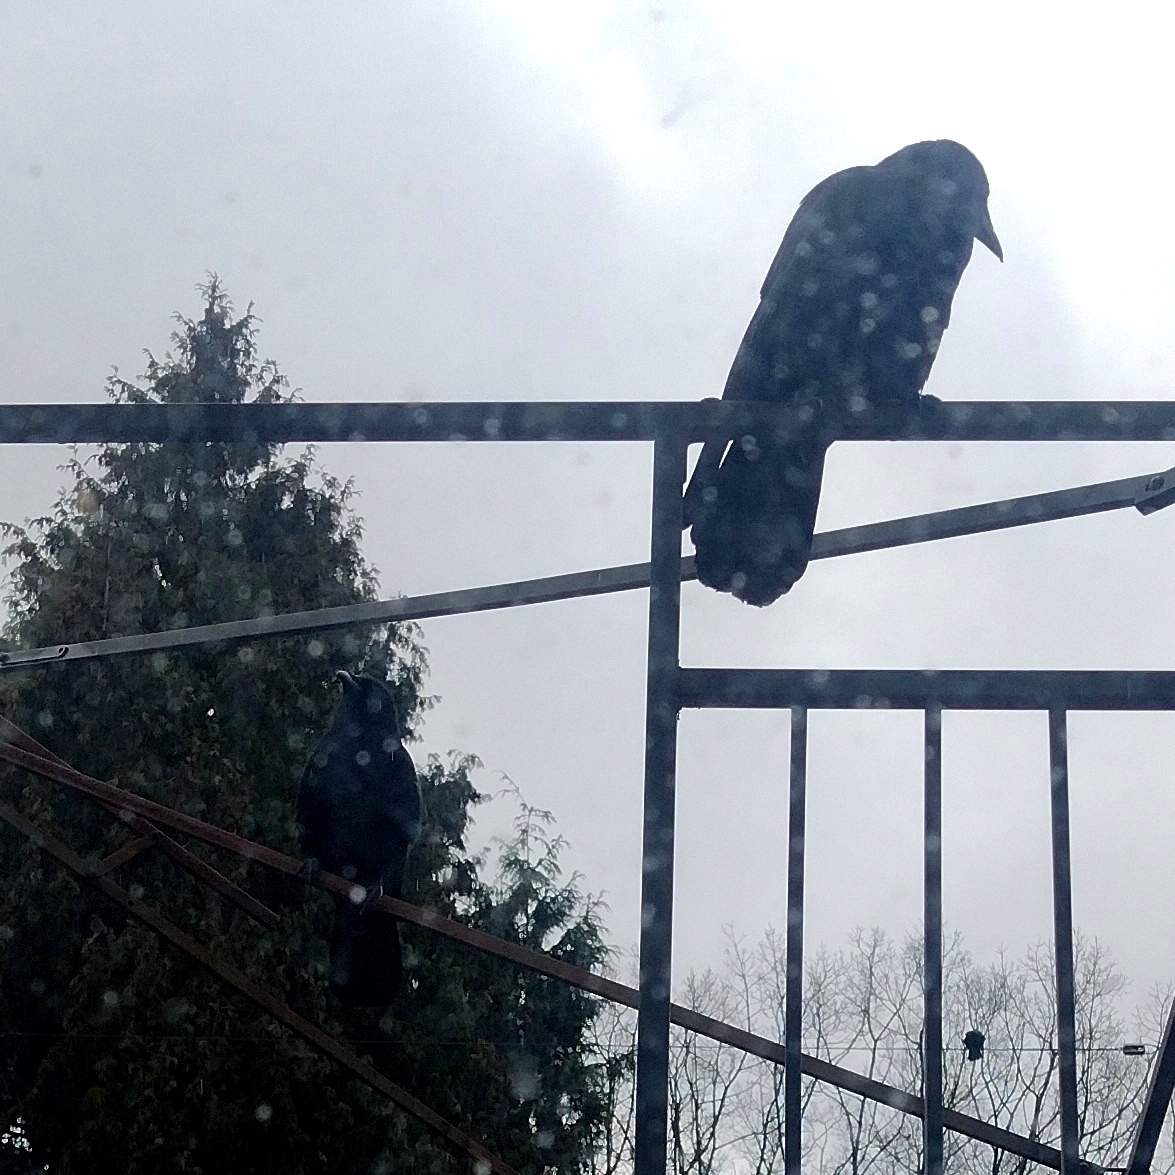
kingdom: Animalia
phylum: Chordata
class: Aves
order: Passeriformes
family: Corvidae
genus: Corvus
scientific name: Corvus brachyrhynchos
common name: American crow
